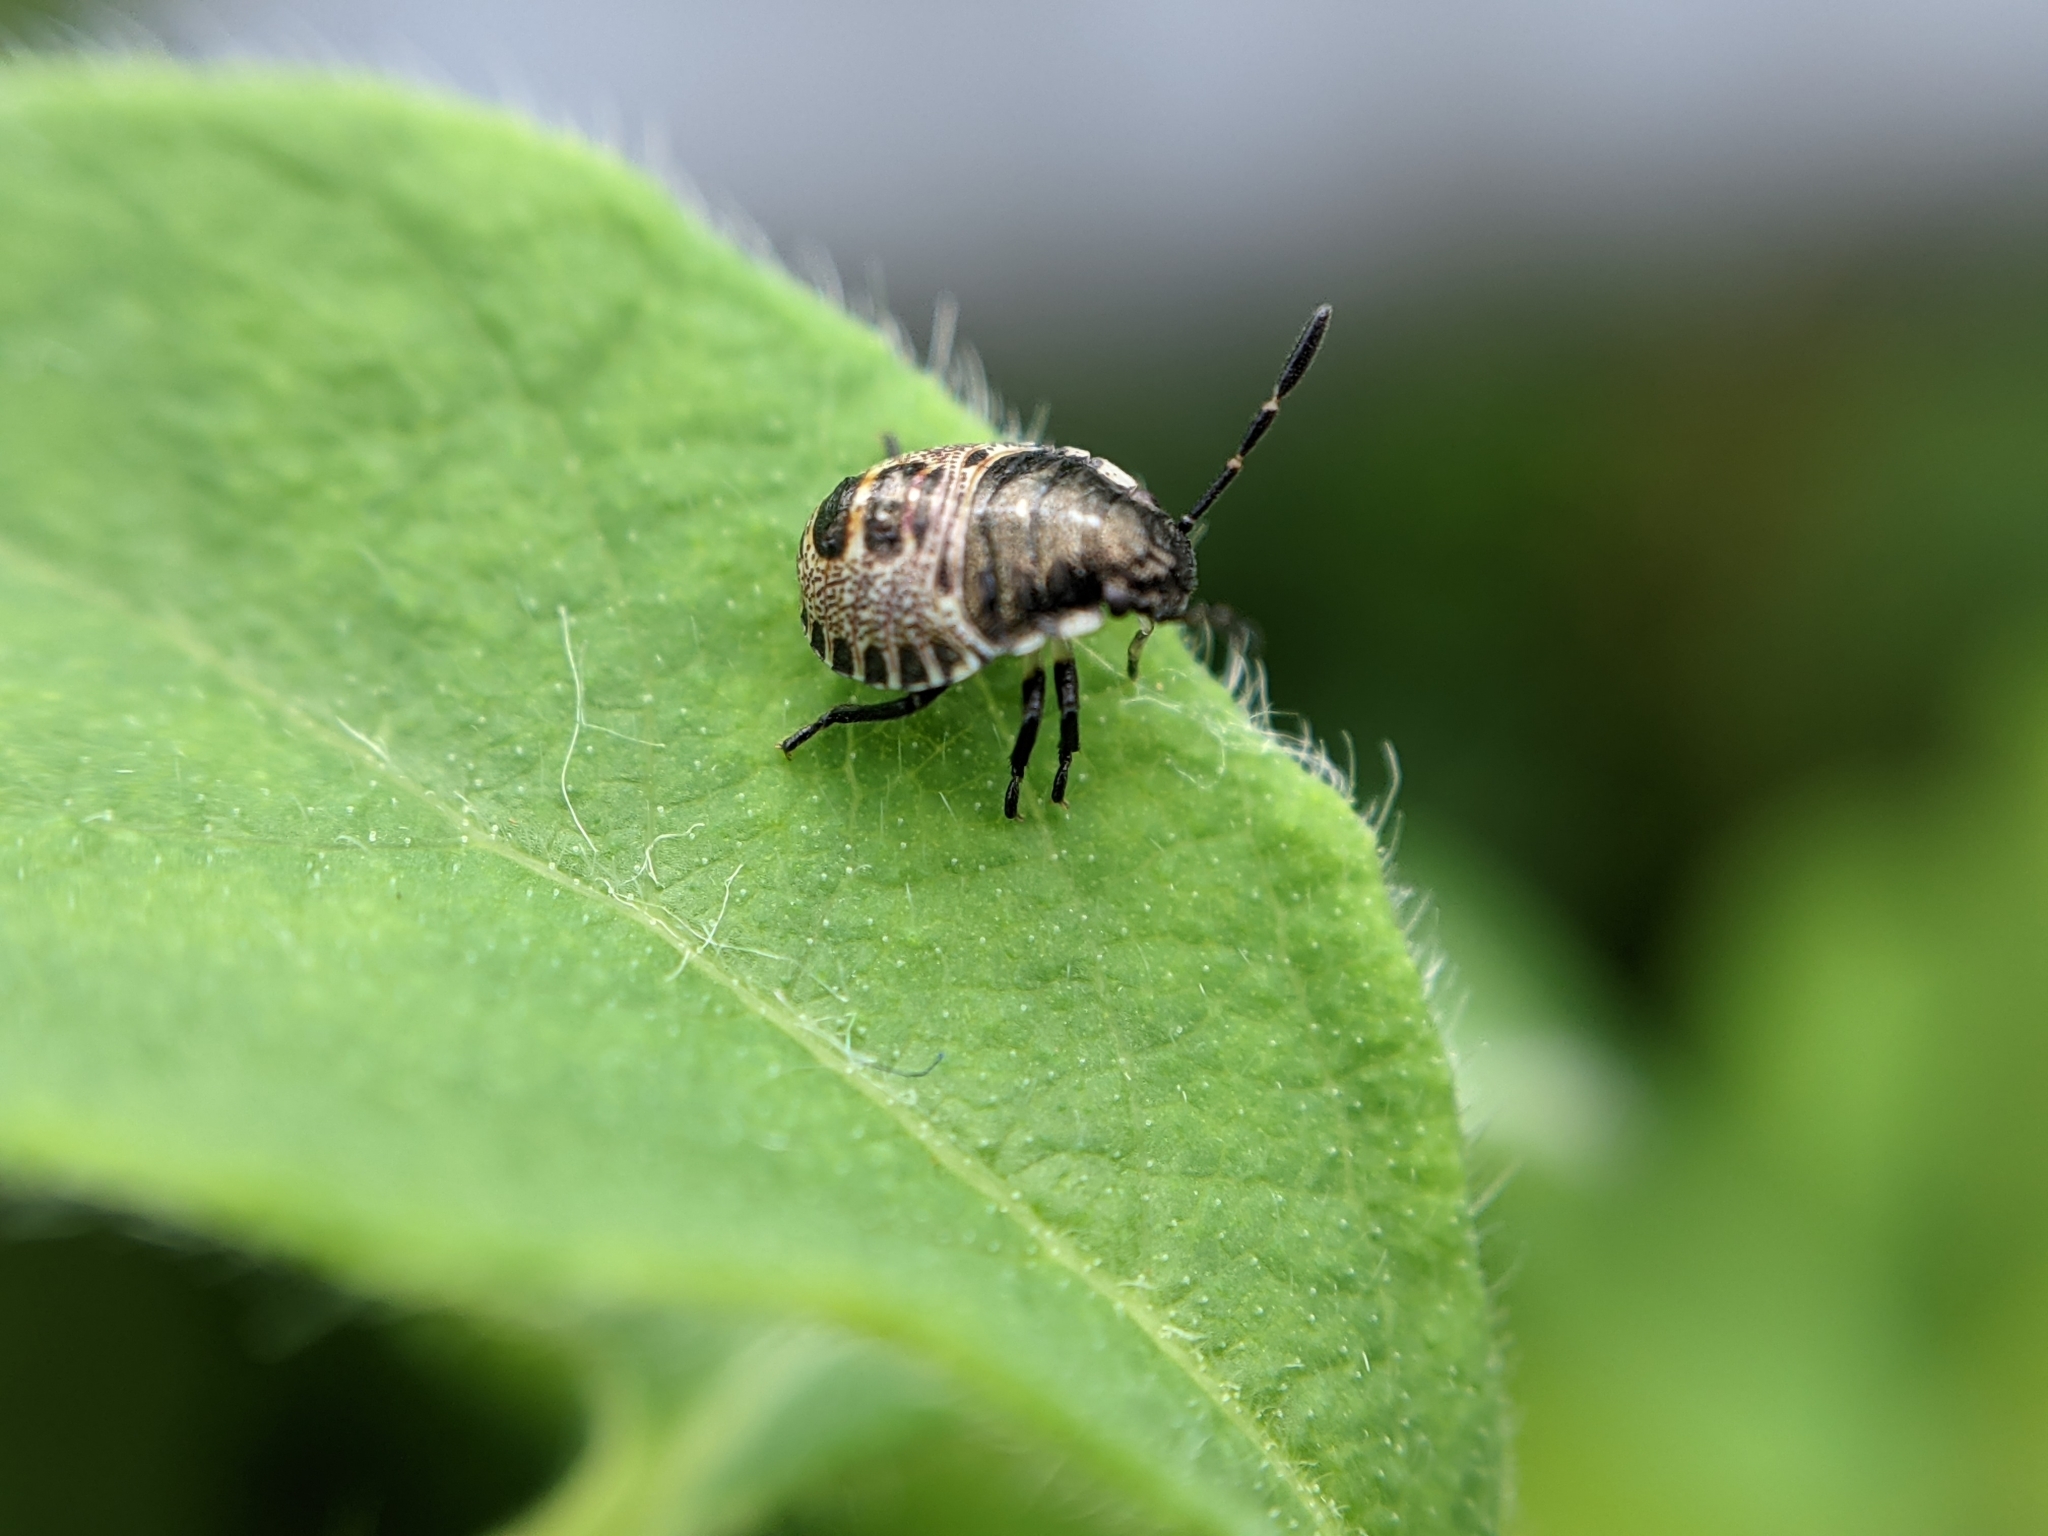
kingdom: Animalia
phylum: Arthropoda
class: Insecta
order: Hemiptera
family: Pentatomidae
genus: Rhaphigaster
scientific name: Rhaphigaster nebulosa
